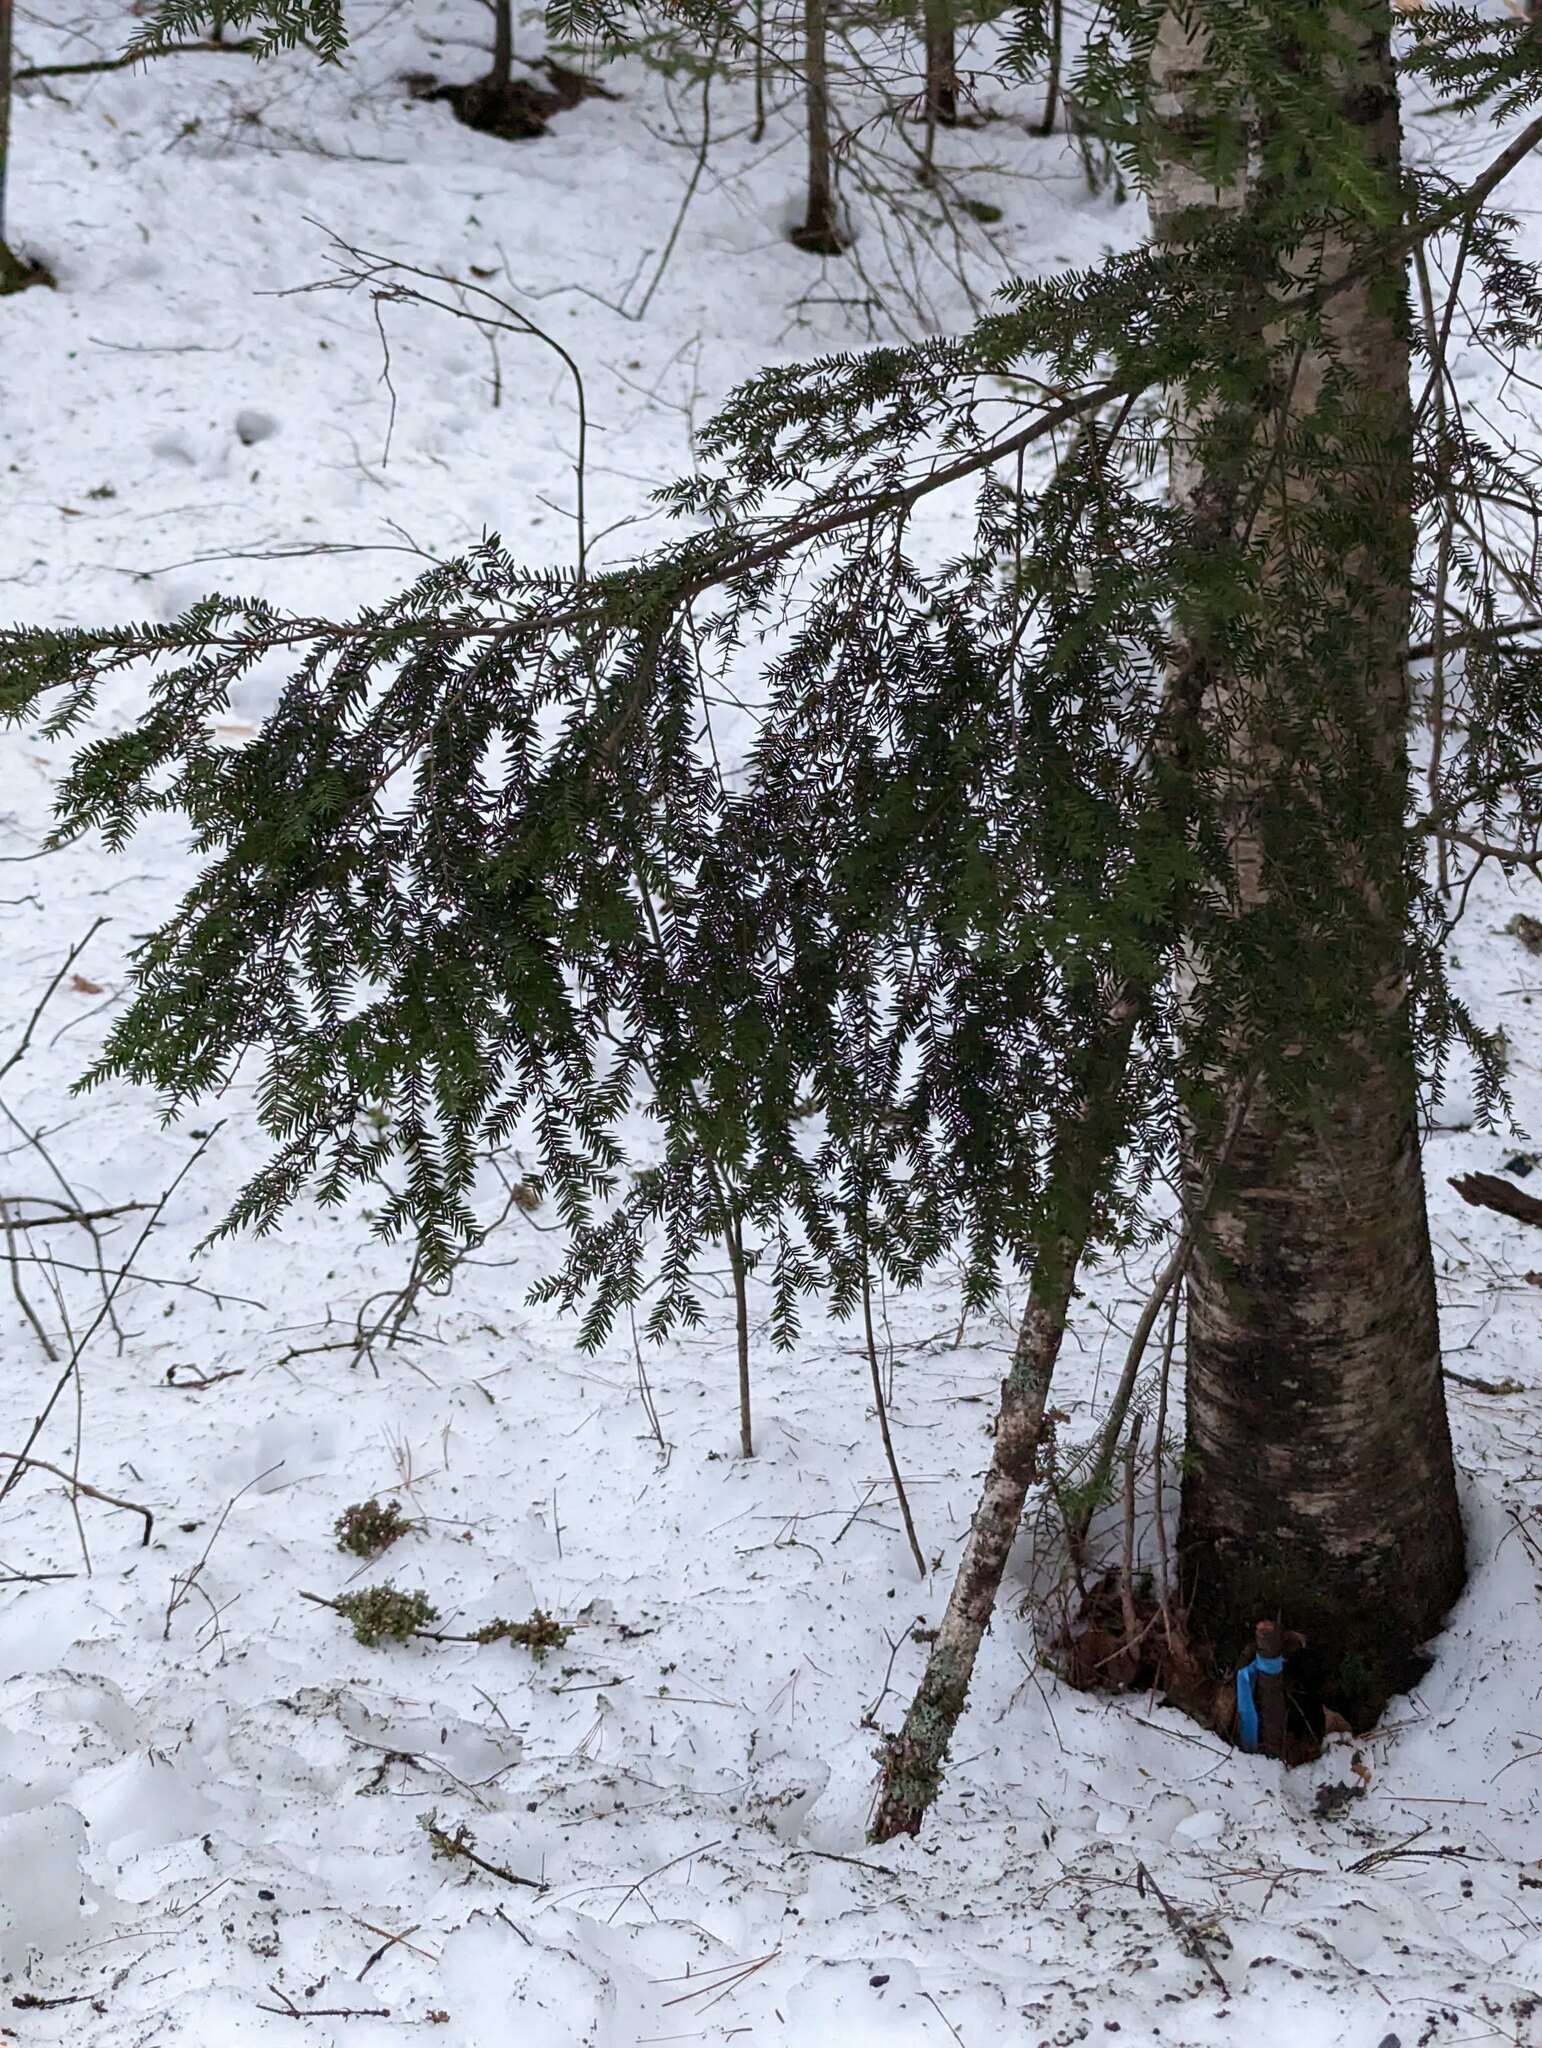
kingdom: Plantae
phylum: Tracheophyta
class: Pinopsida
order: Pinales
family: Pinaceae
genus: Tsuga
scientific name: Tsuga canadensis
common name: Eastern hemlock
